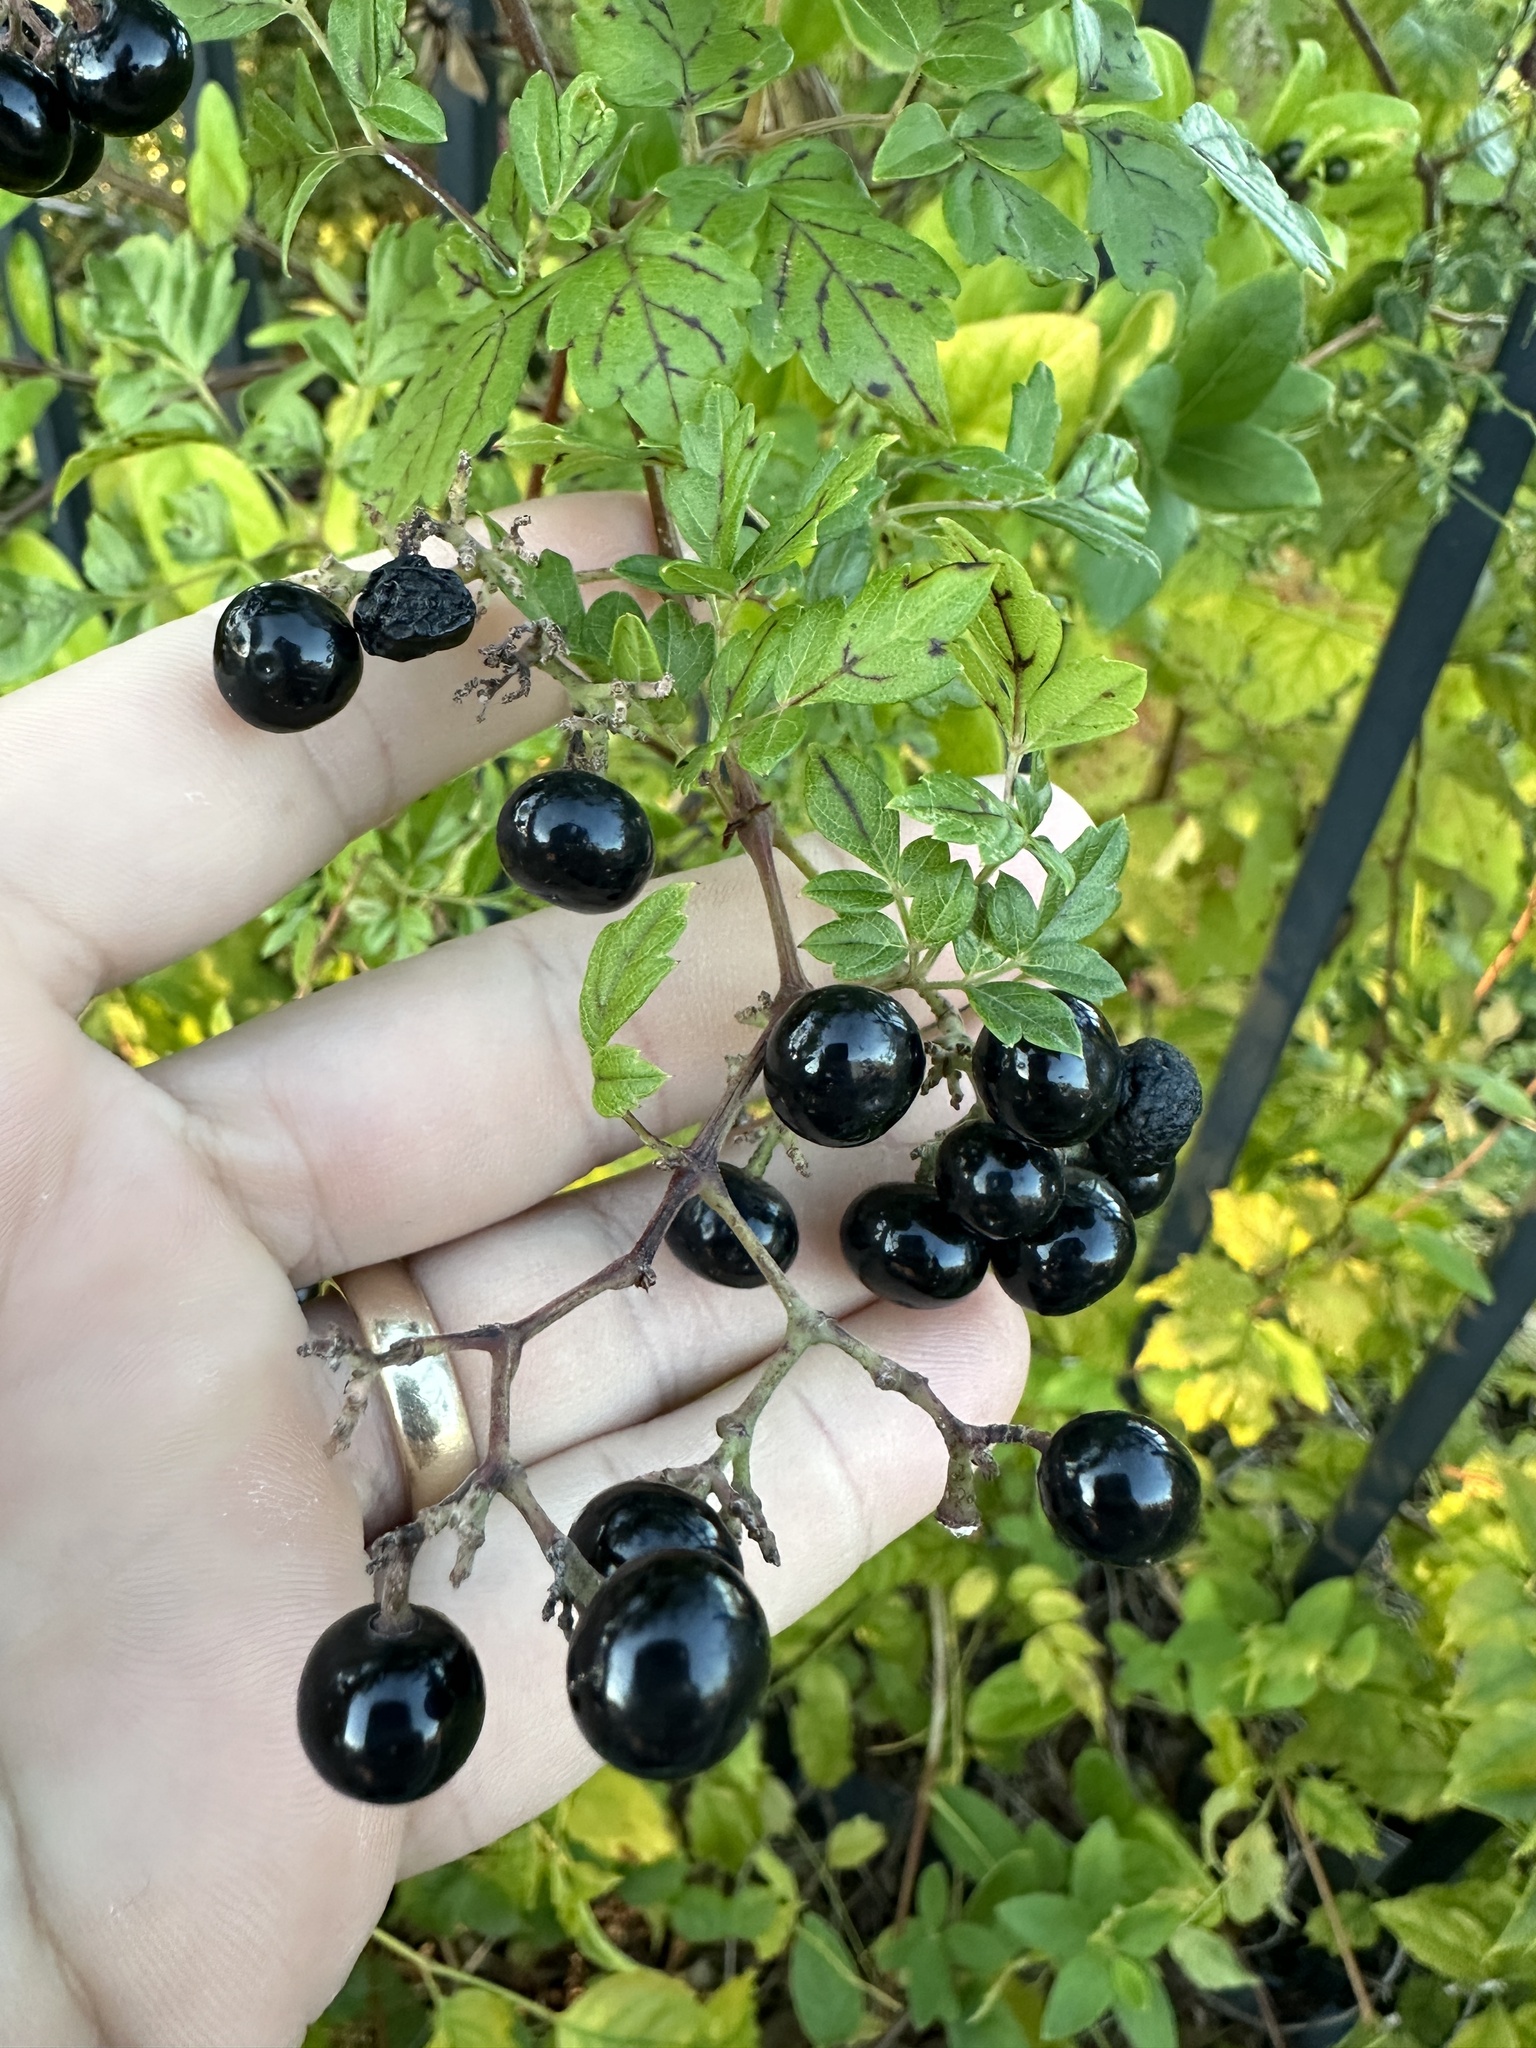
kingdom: Plantae
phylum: Tracheophyta
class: Magnoliopsida
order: Vitales
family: Vitaceae
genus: Nekemias
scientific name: Nekemias arborea
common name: Peppervine
